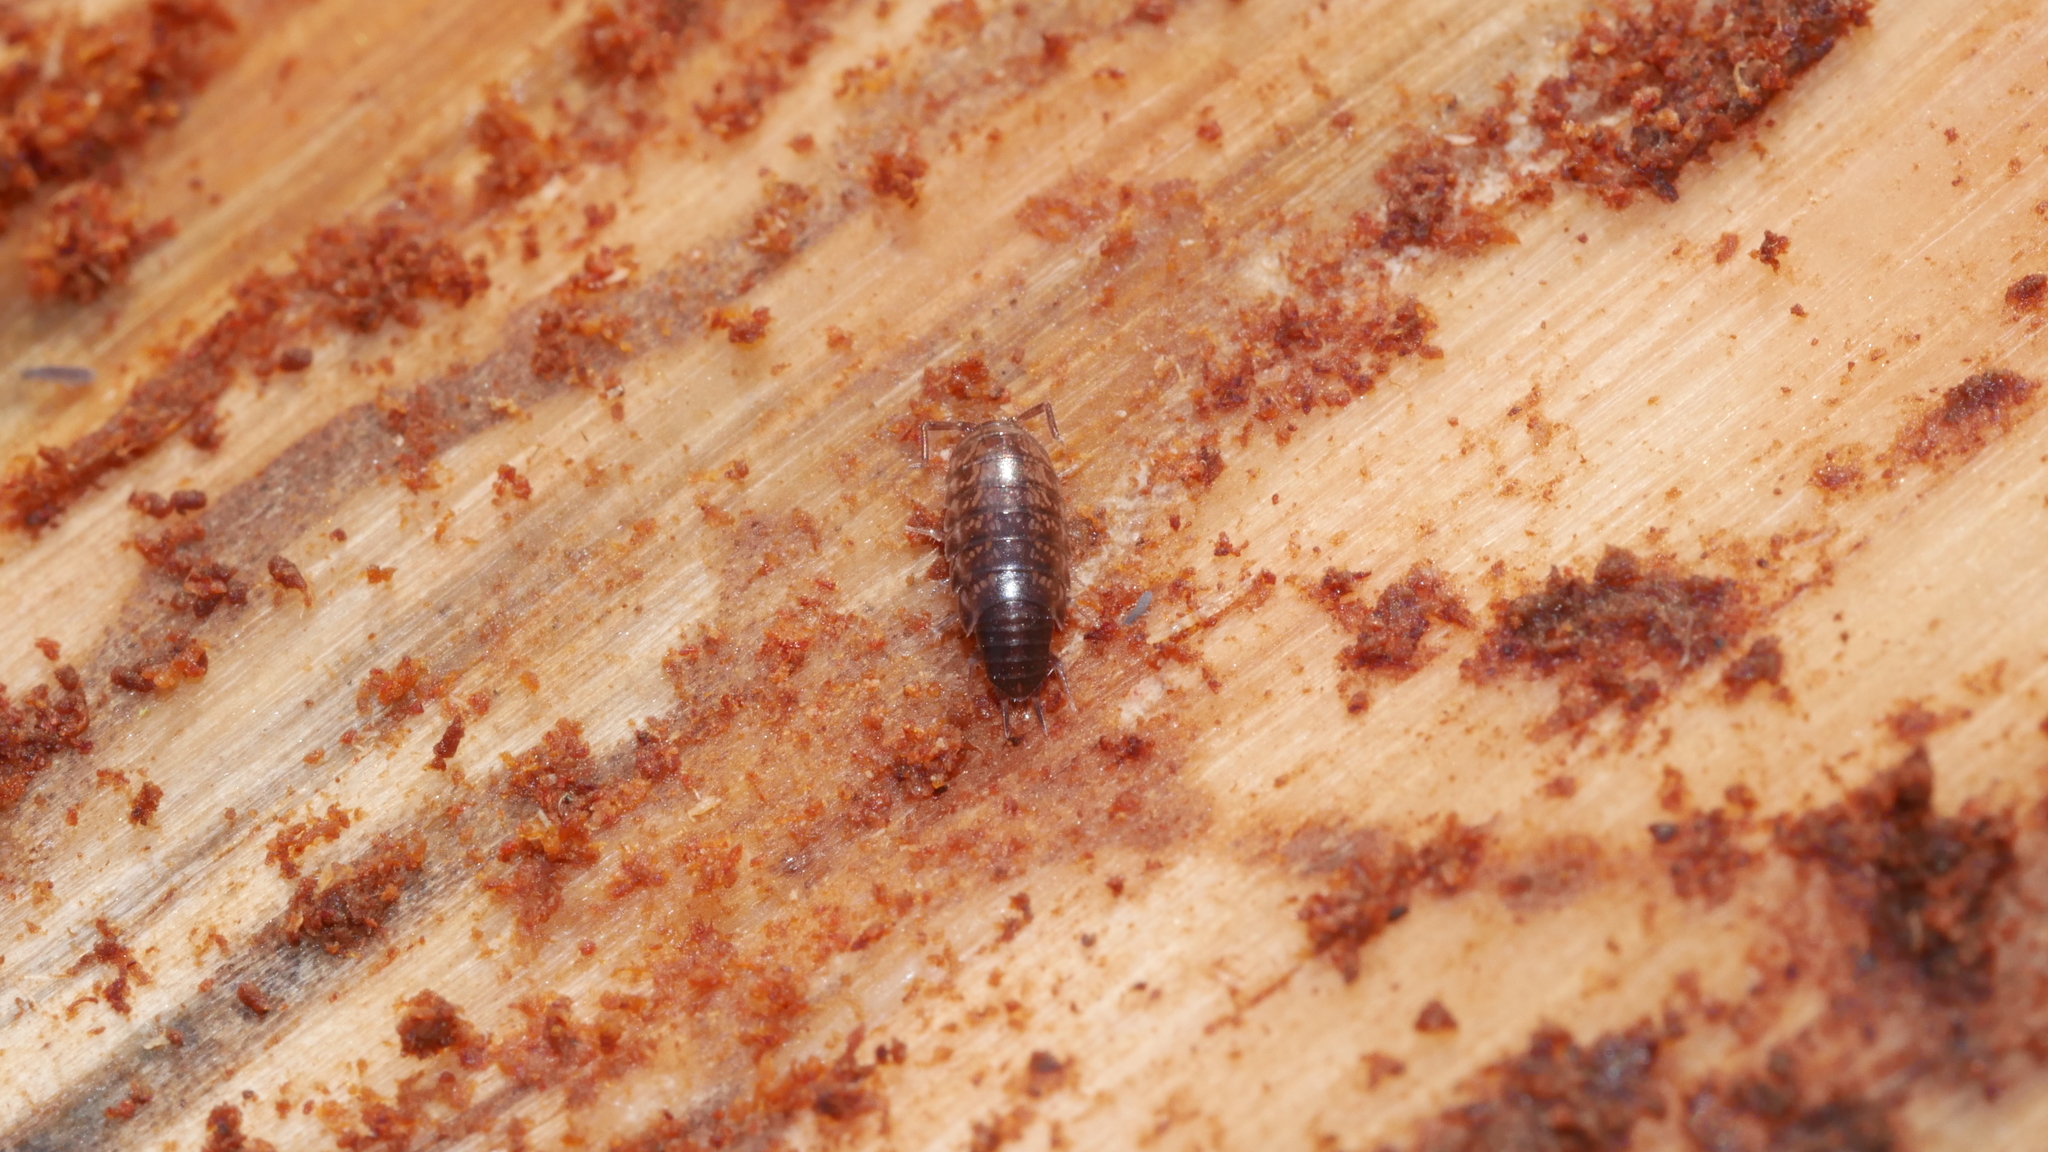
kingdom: Animalia
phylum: Arthropoda
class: Malacostraca
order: Isopoda
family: Philosciidae
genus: Chaetophiloscia
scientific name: Chaetophiloscia sicula
